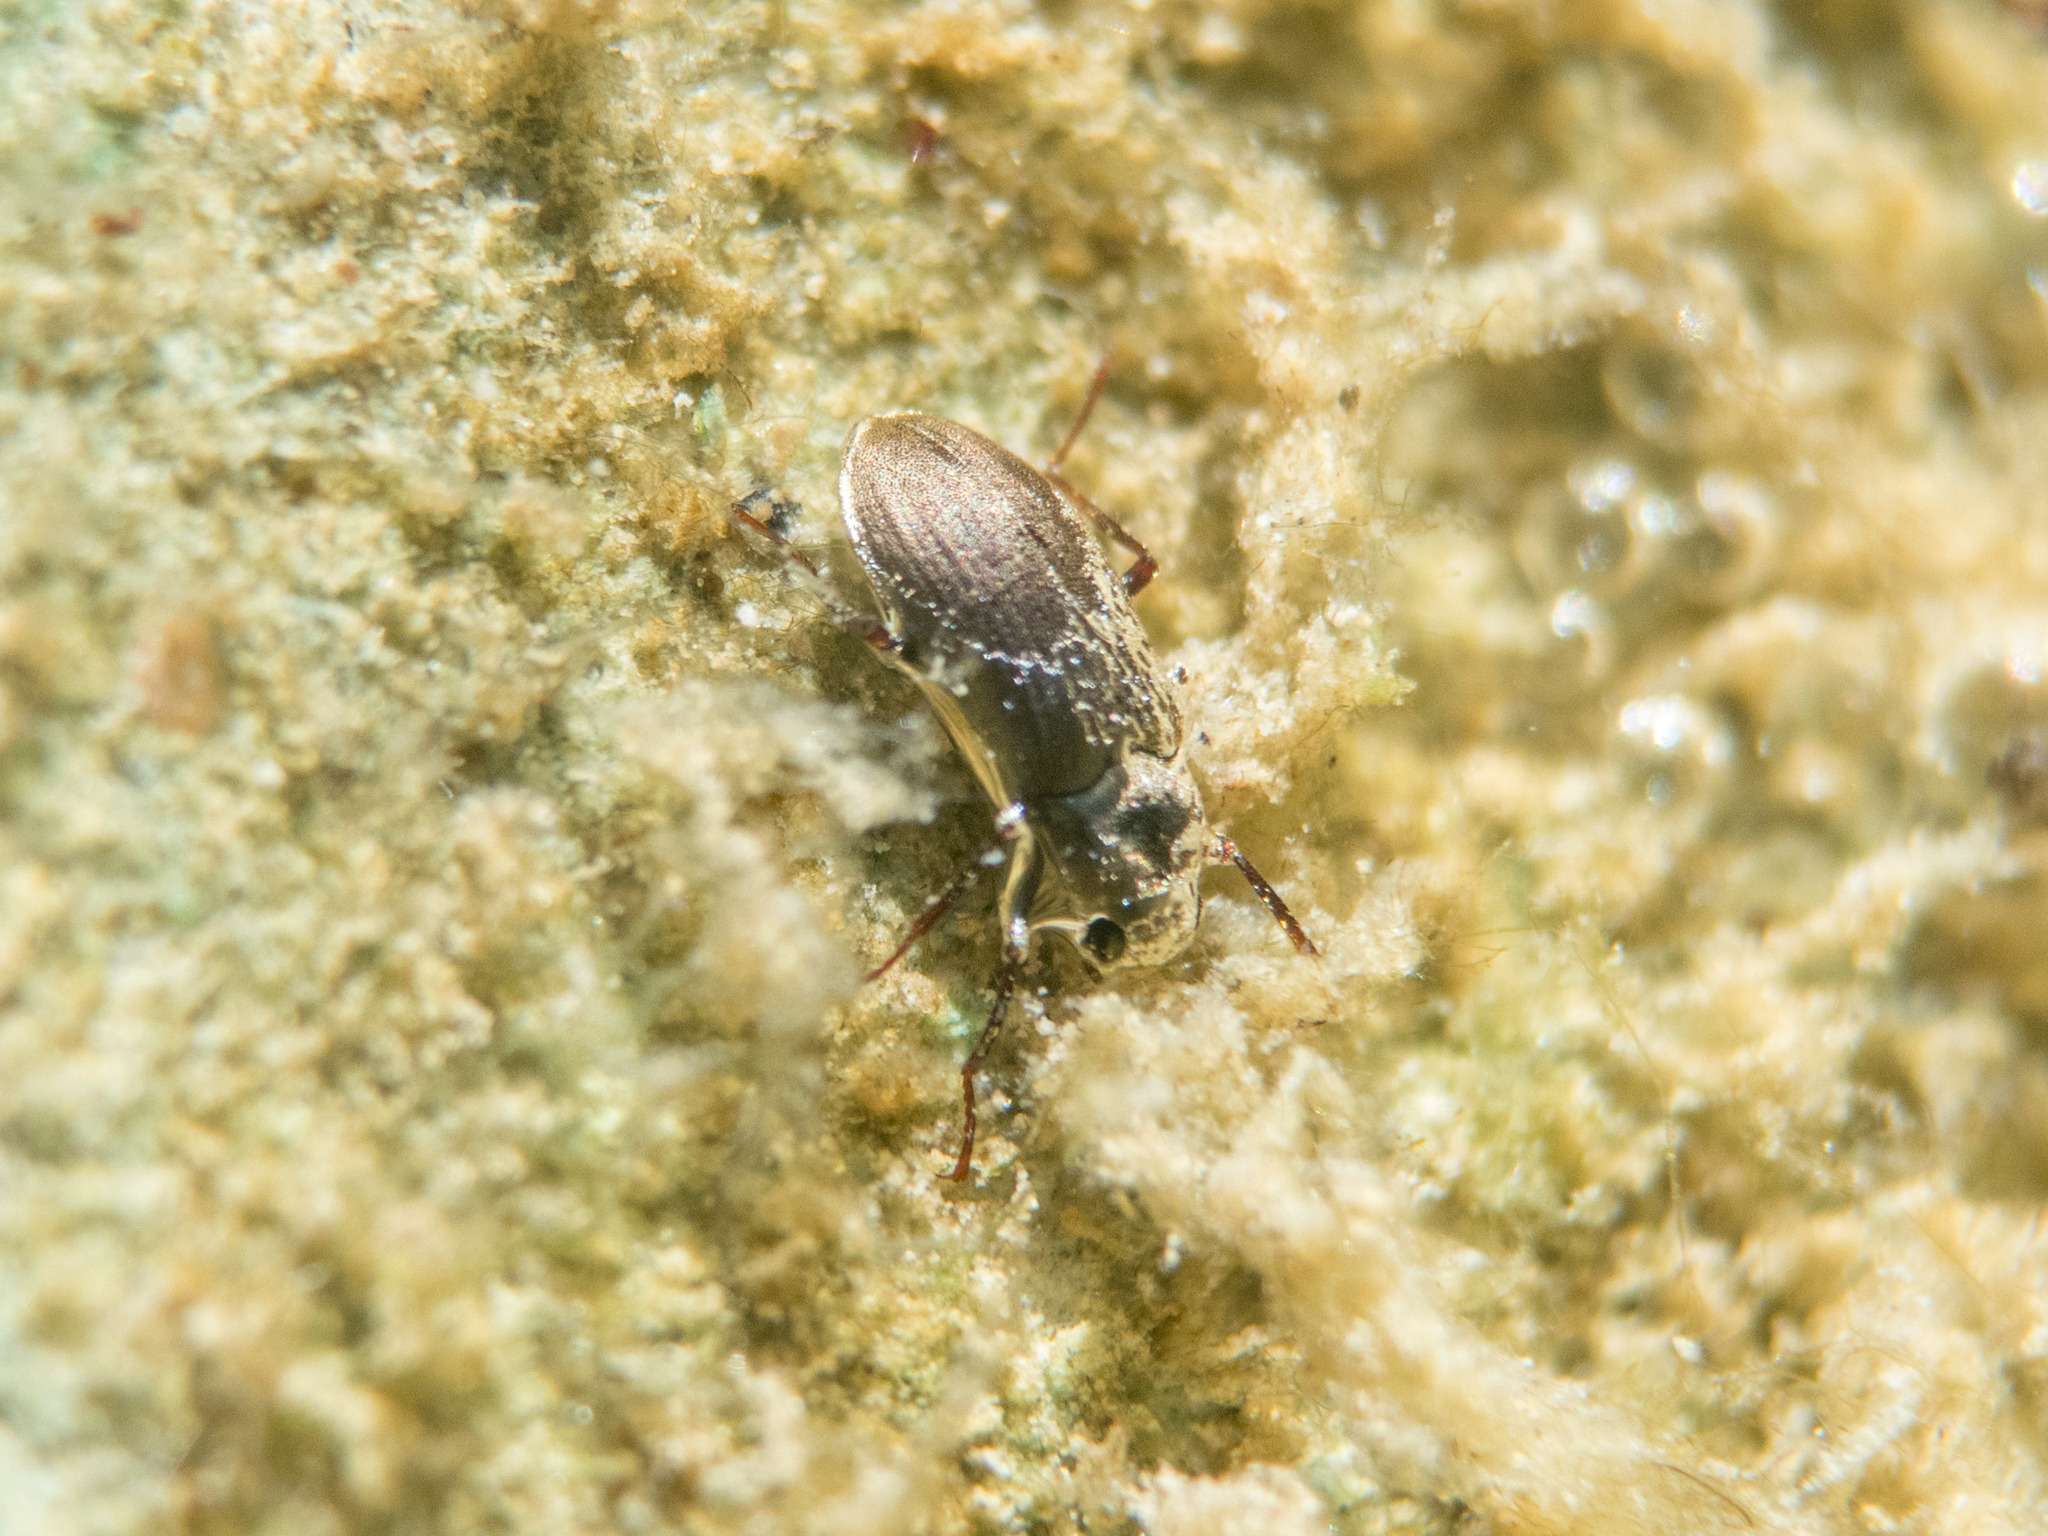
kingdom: Animalia
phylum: Arthropoda
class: Insecta
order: Coleoptera
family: Dryopidae
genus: Pomatinus
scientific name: Pomatinus substriatus
